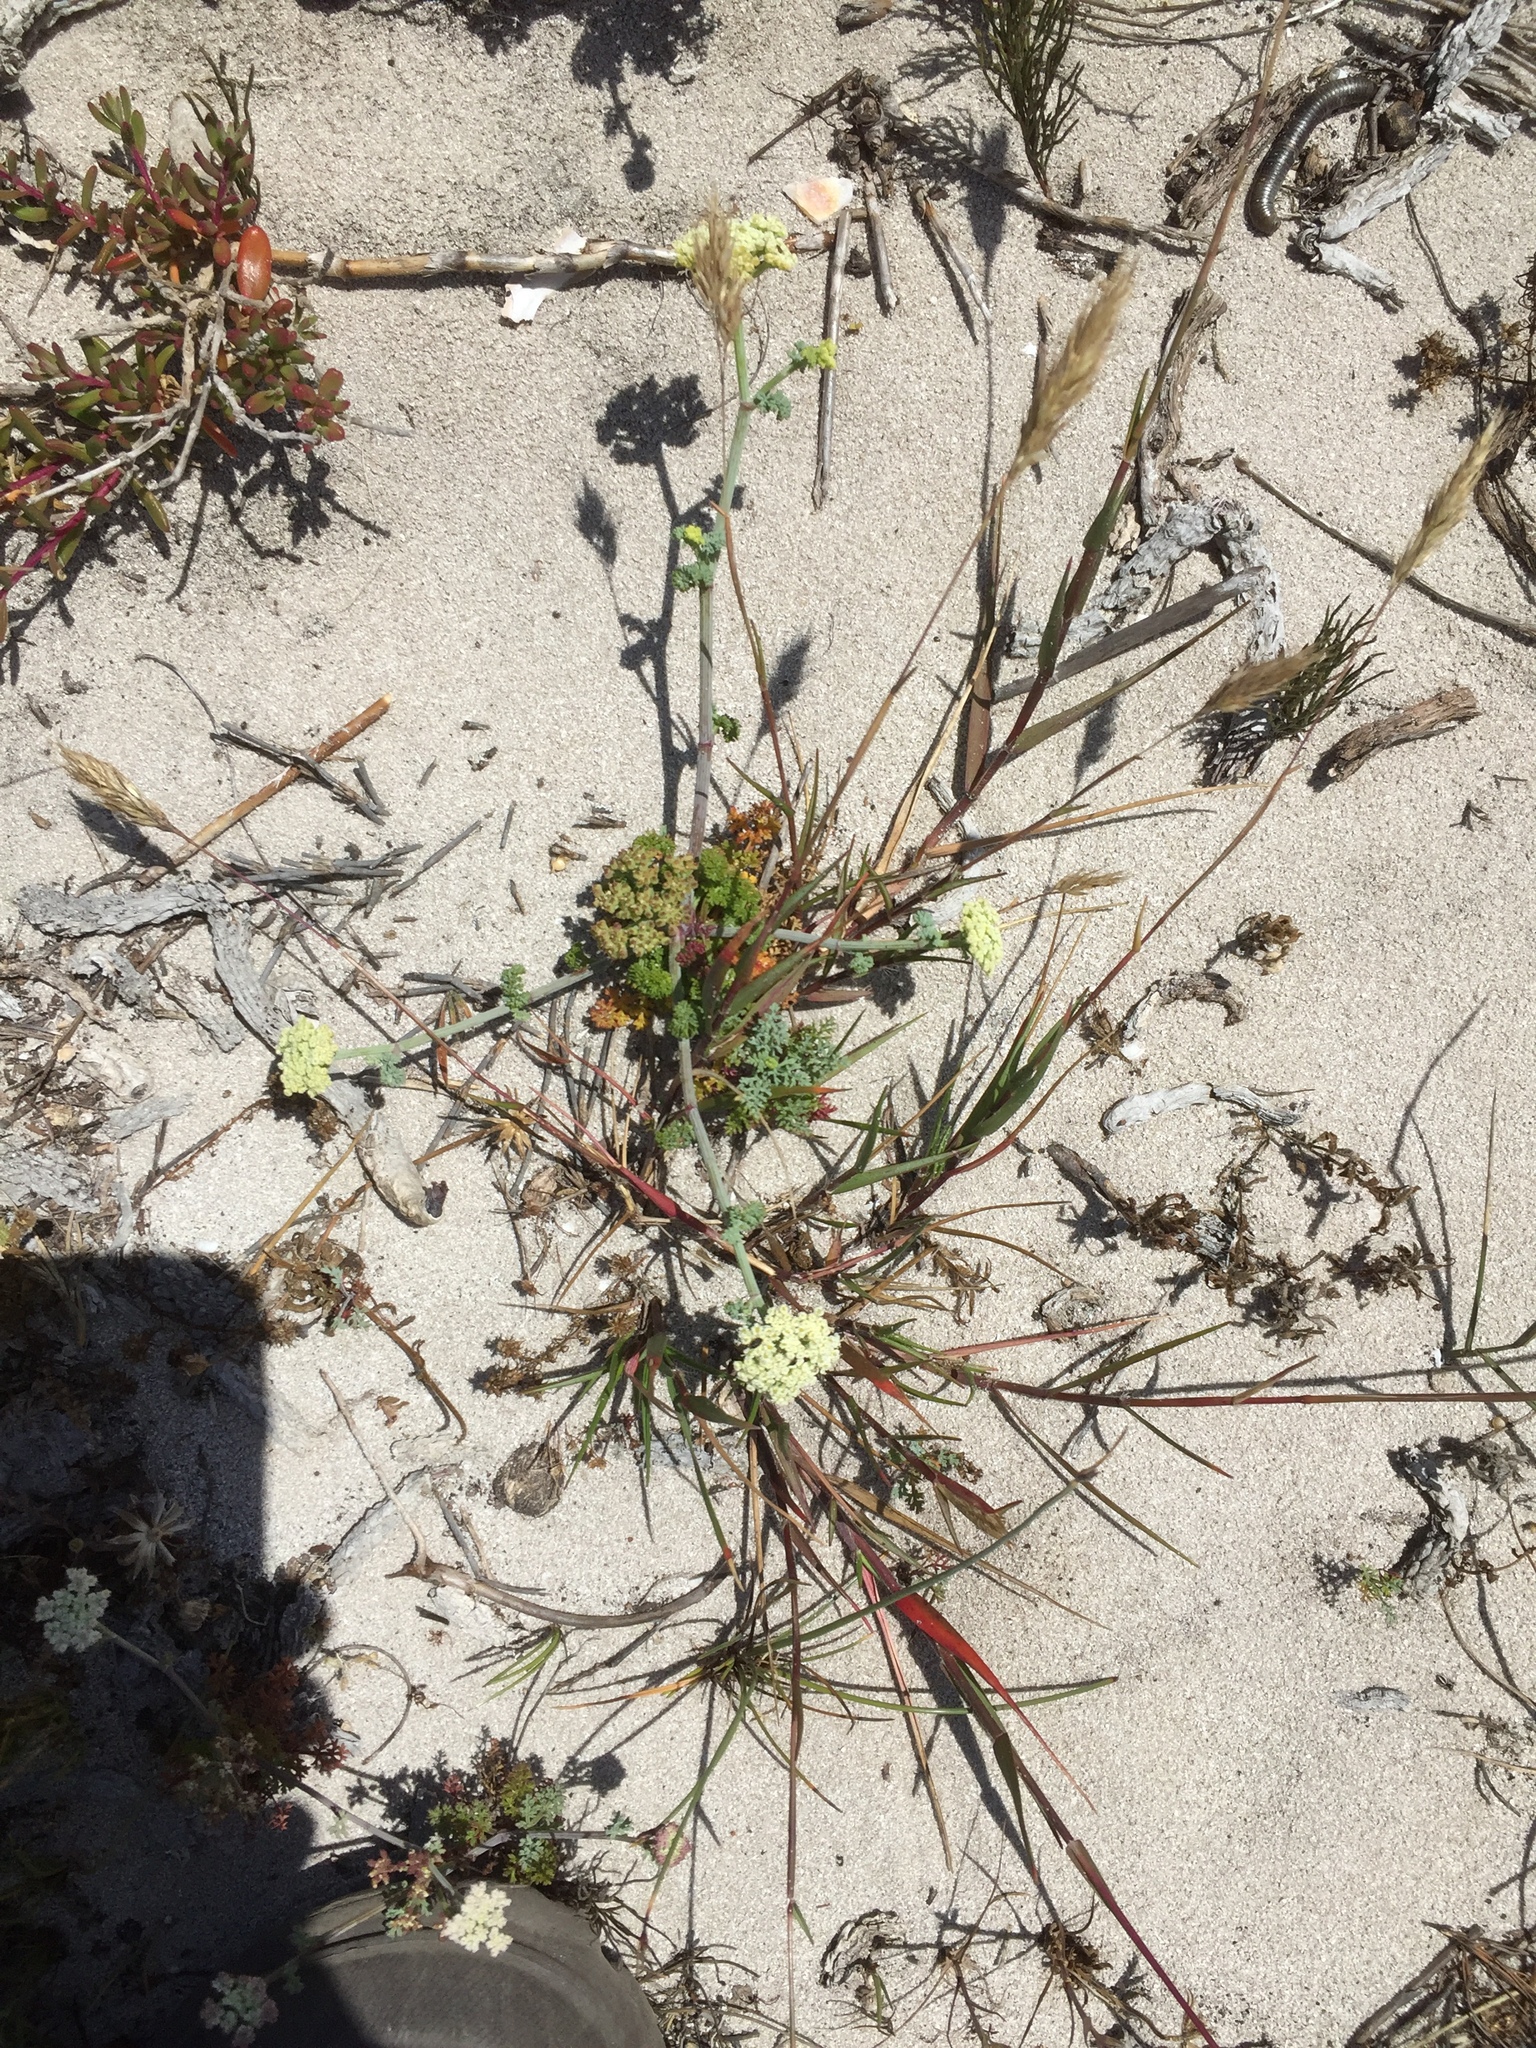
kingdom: Plantae
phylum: Tracheophyta
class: Magnoliopsida
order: Apiales
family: Apiaceae
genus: Dasispermum
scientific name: Dasispermum suffruticosum
